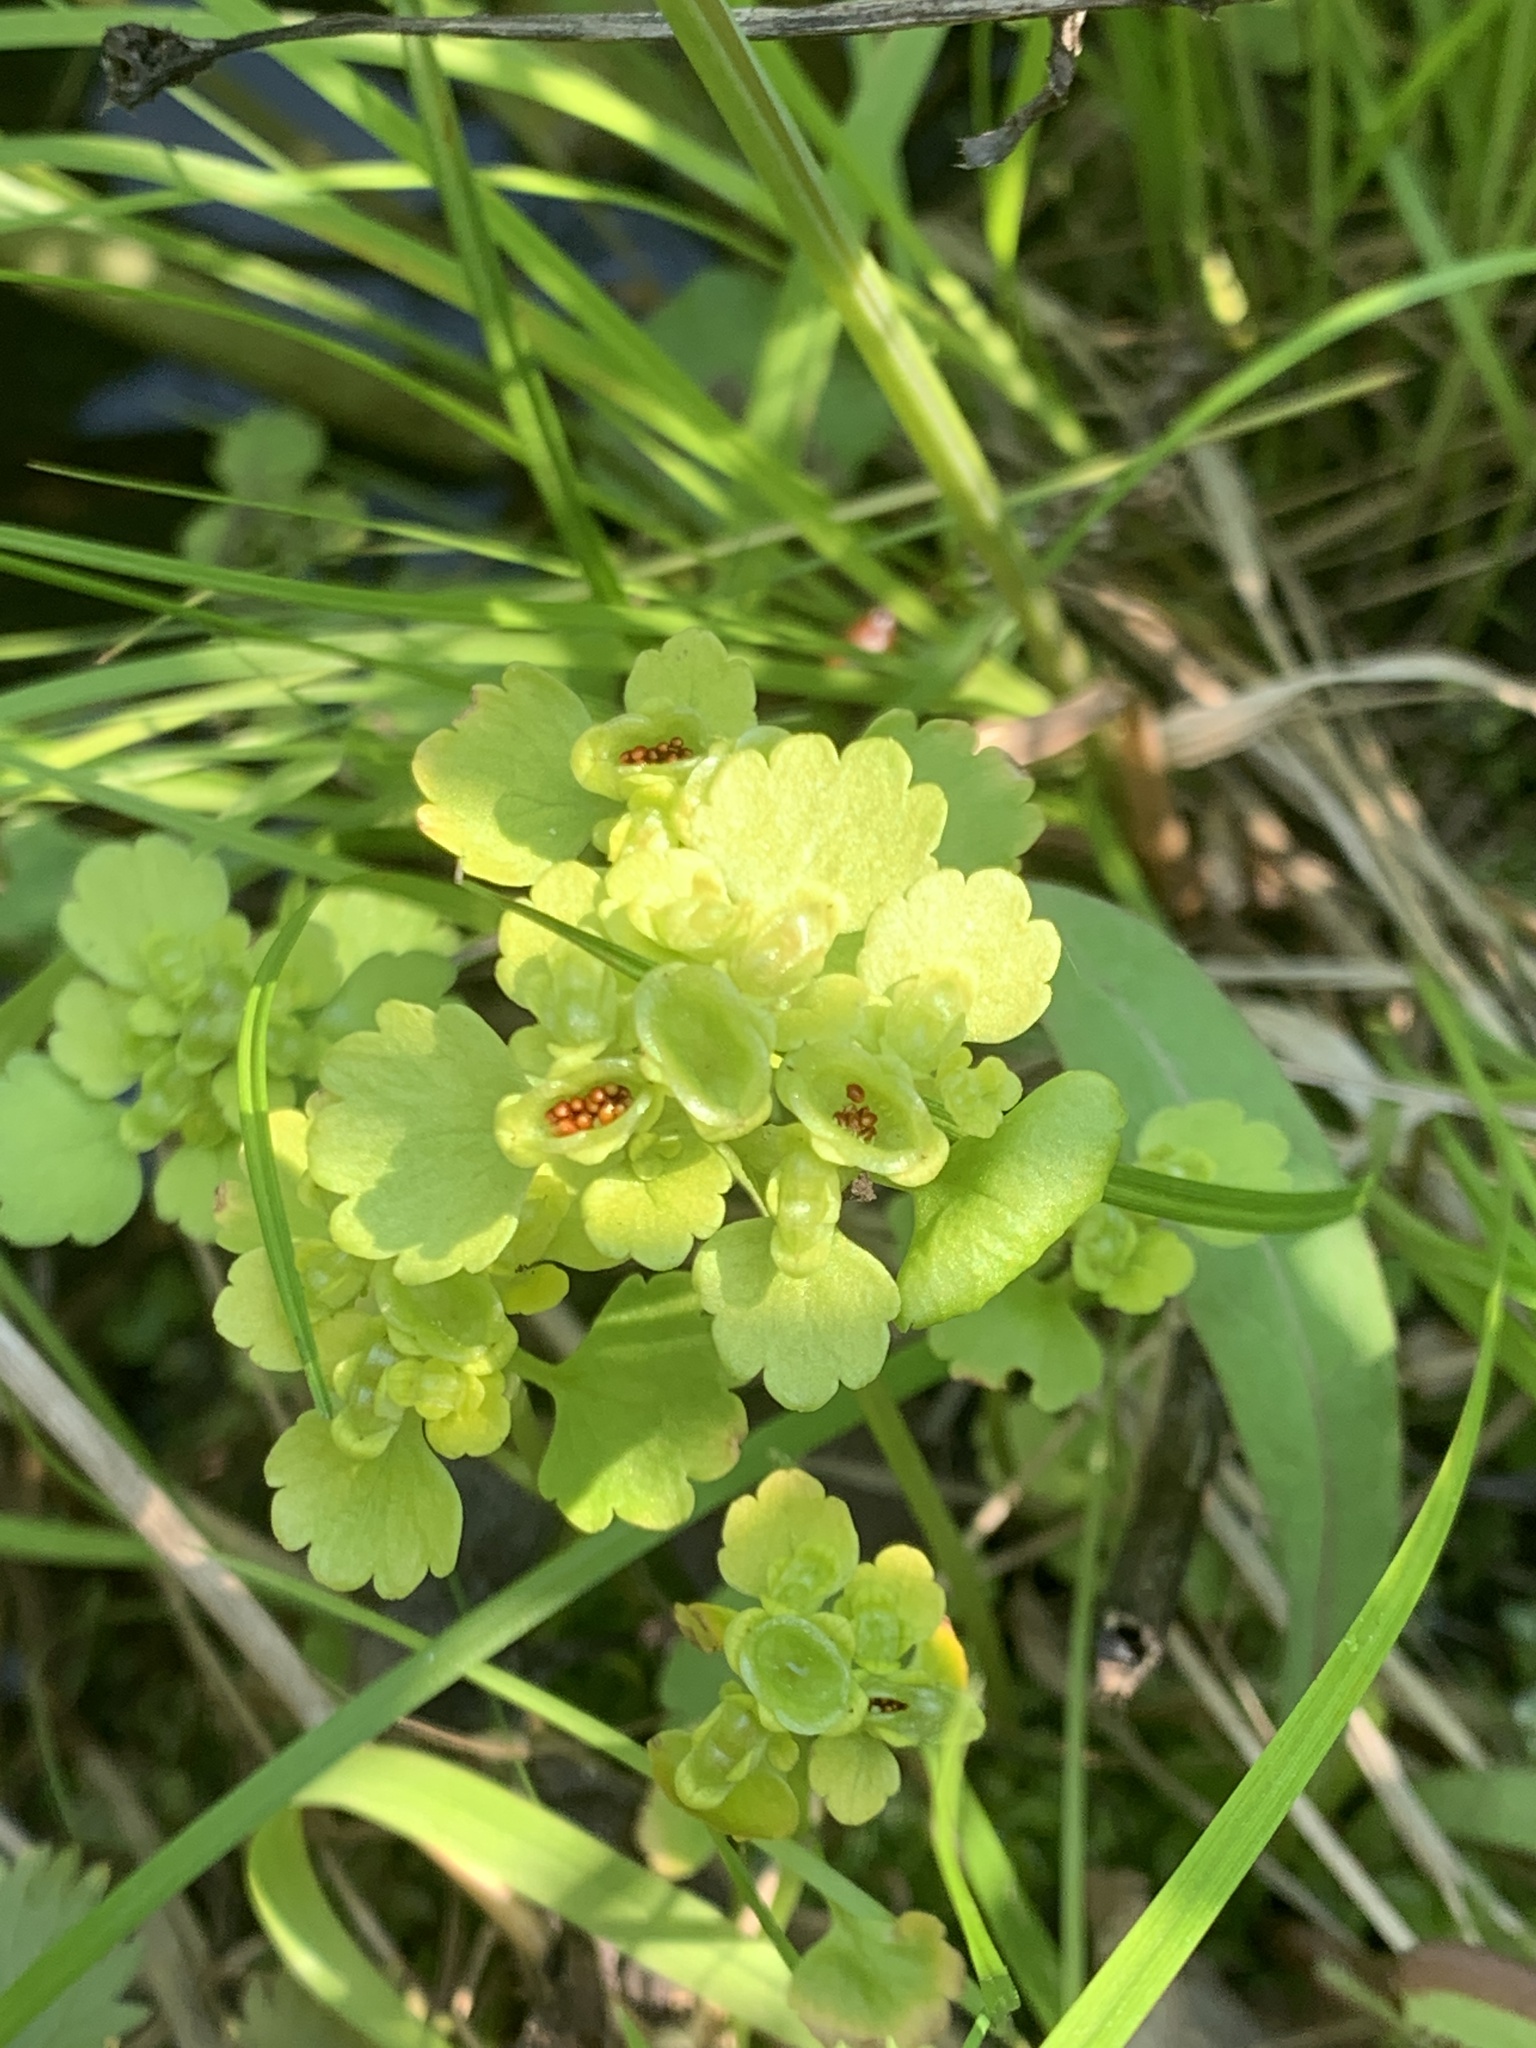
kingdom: Plantae
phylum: Tracheophyta
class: Magnoliopsida
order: Saxifragales
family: Saxifragaceae
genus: Chrysosplenium
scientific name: Chrysosplenium tetrandrum
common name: Green saxifrage
